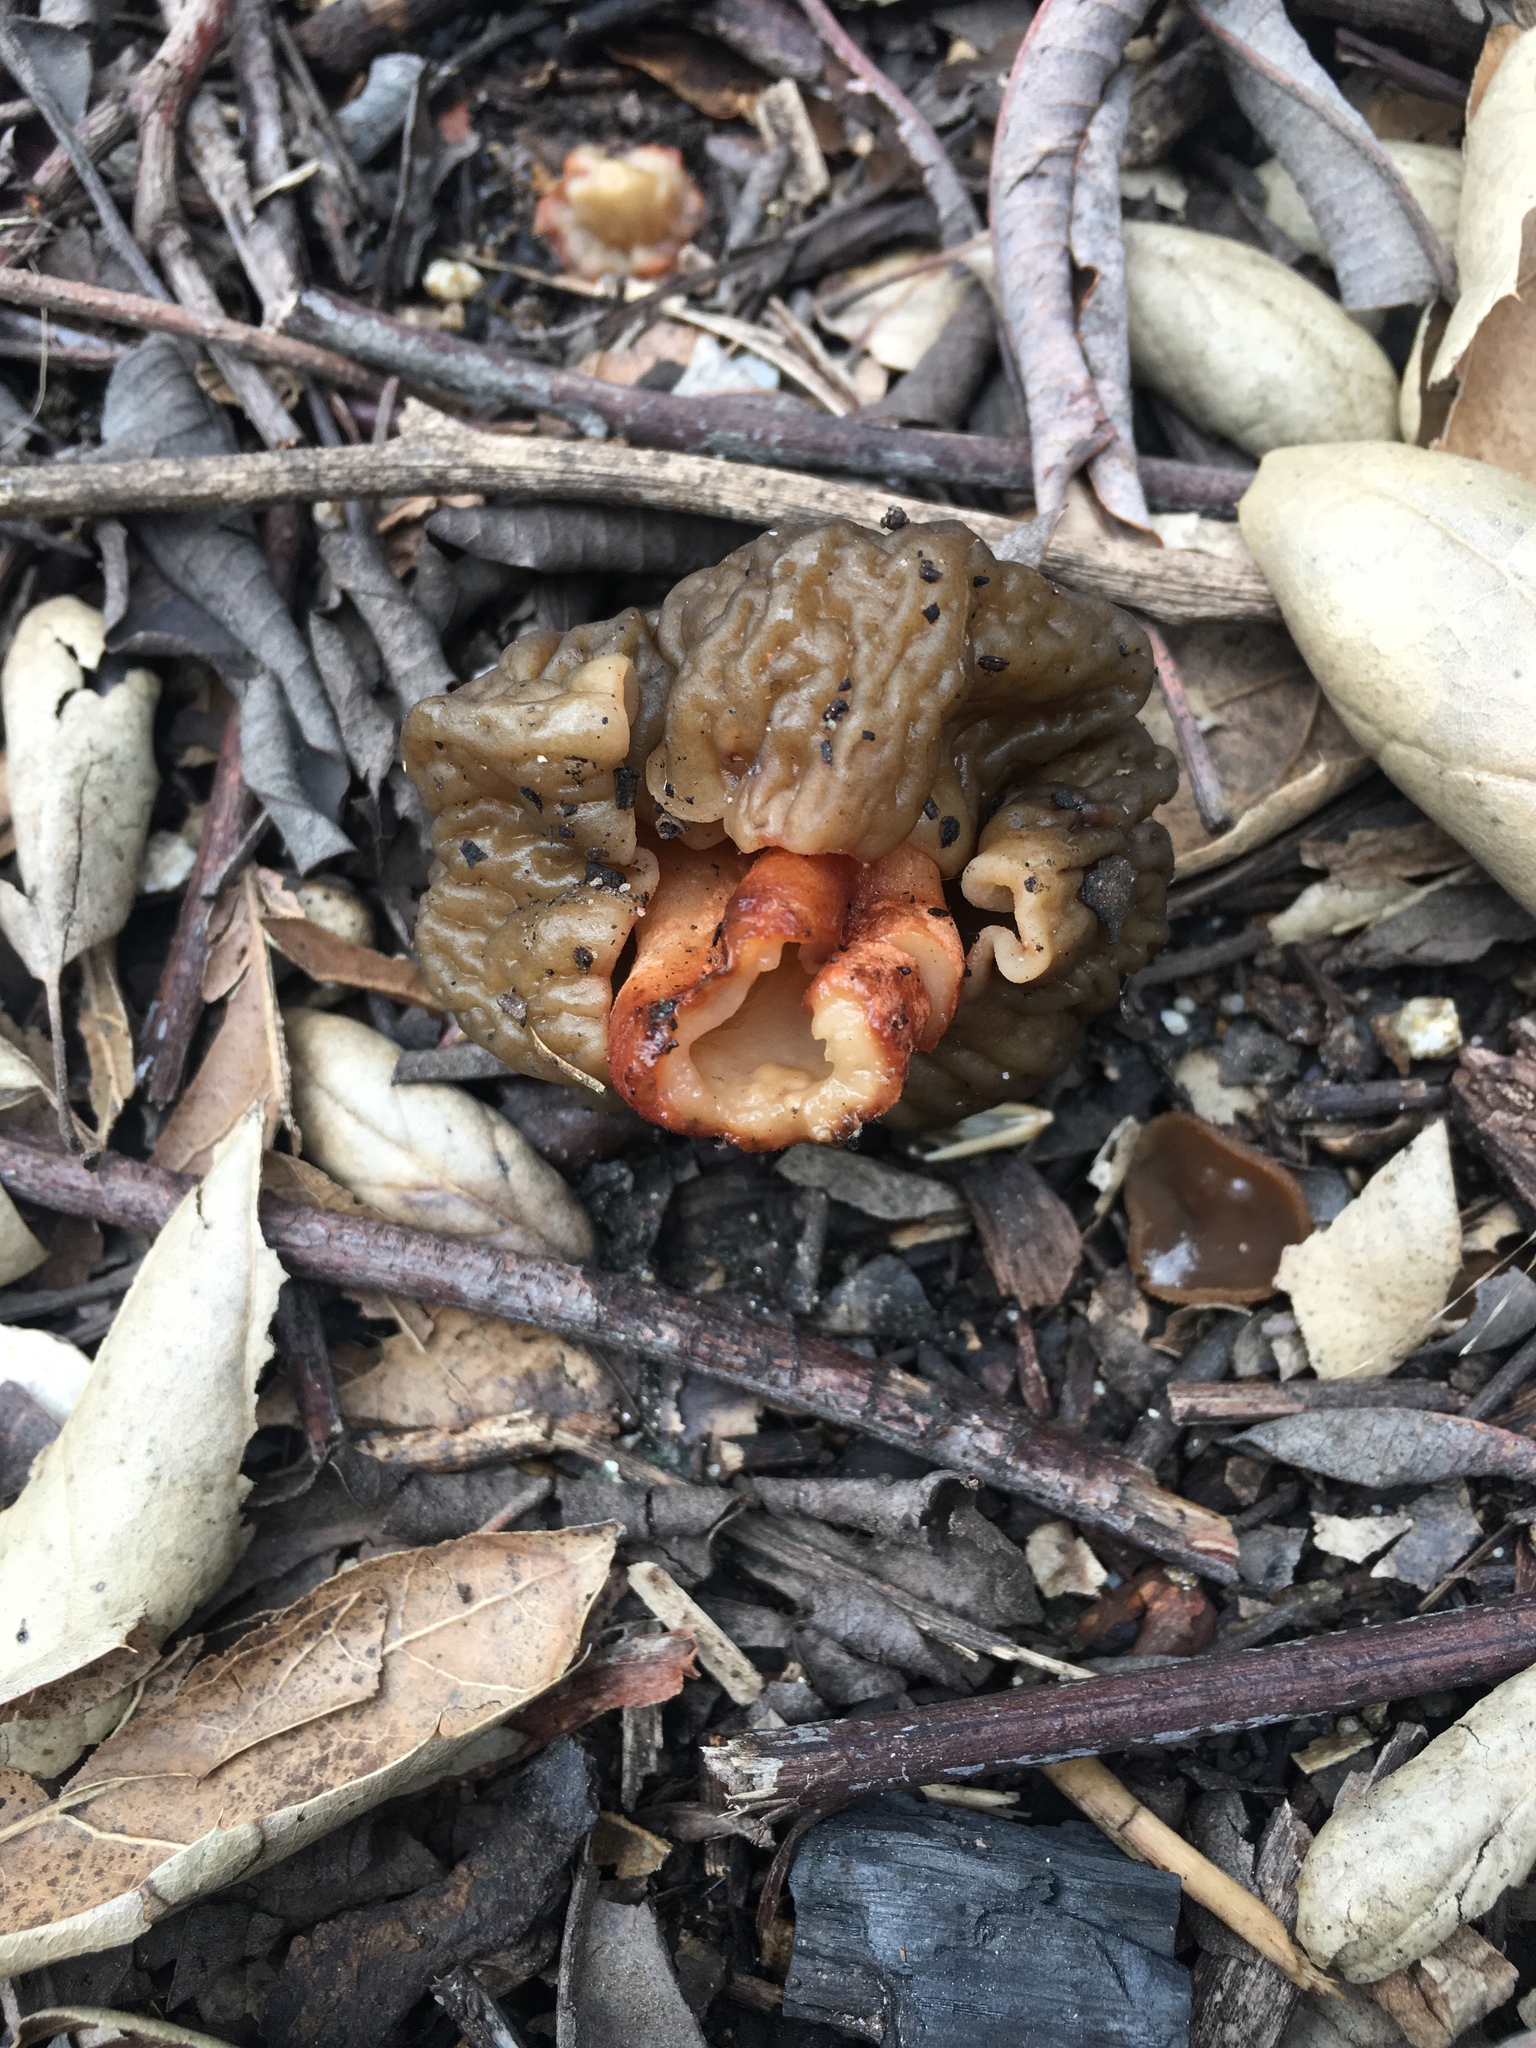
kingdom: Fungi
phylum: Ascomycota
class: Pezizomycetes
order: Pezizales
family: Morchellaceae
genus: Verpa
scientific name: Verpa bohemica
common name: Wrinkled thimble morel
